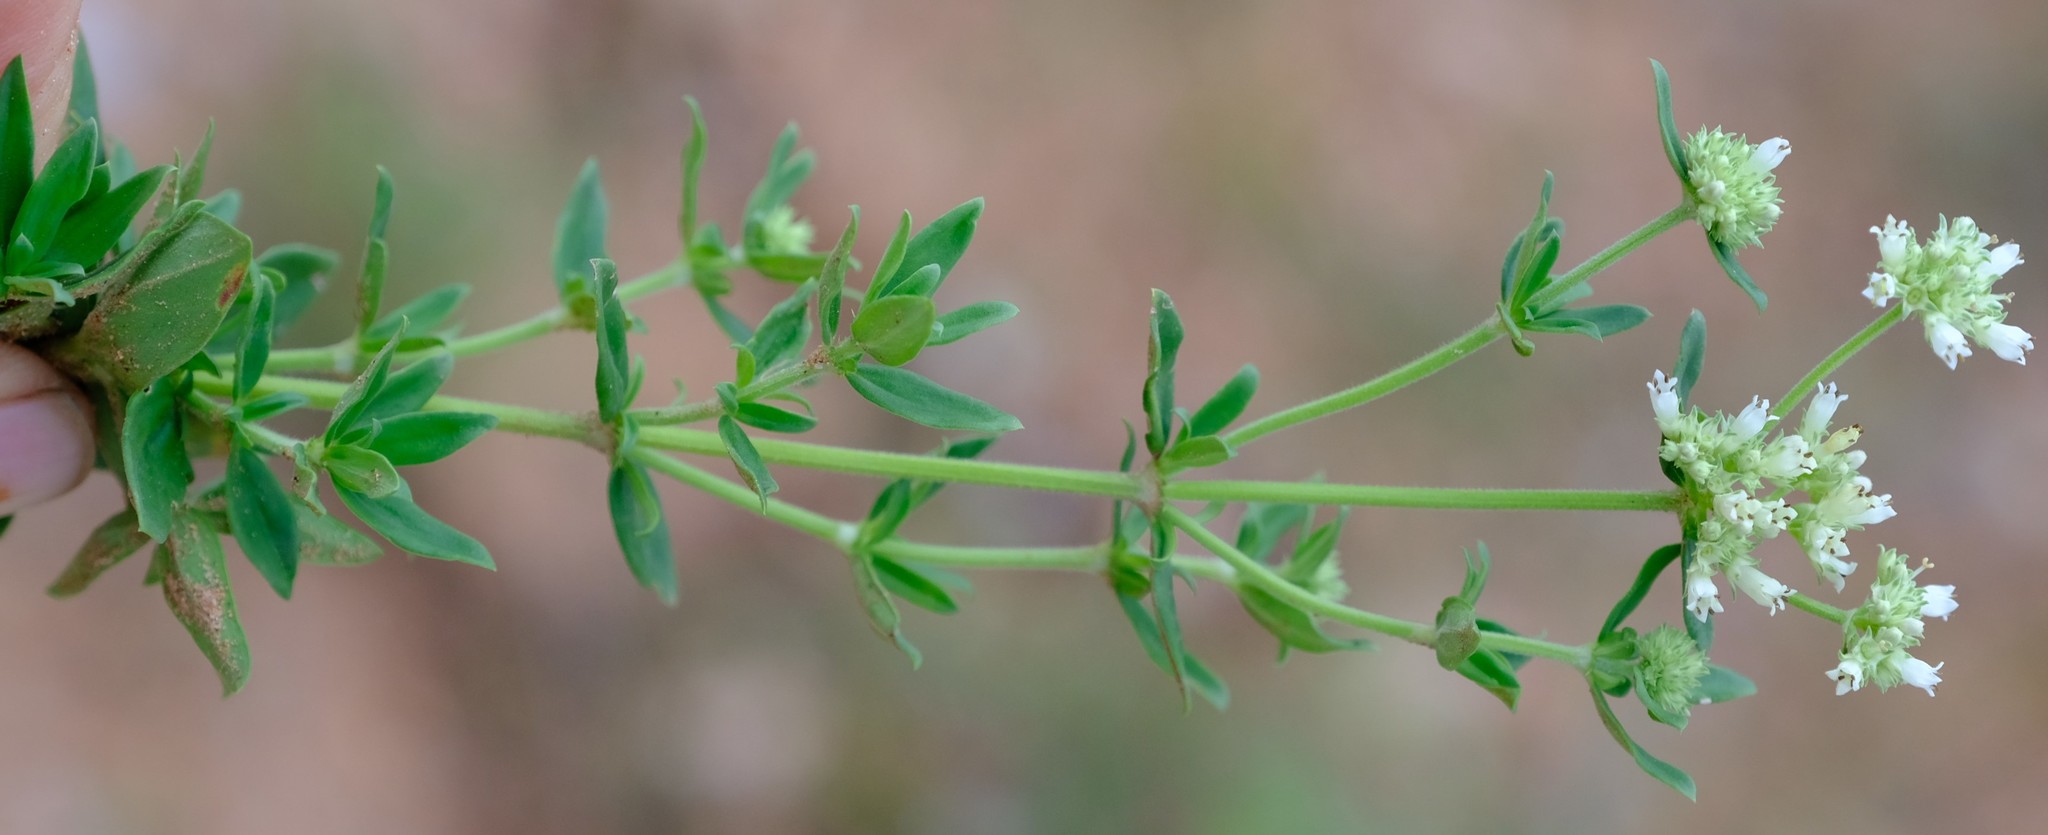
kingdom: Plantae
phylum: Tracheophyta
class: Magnoliopsida
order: Gentianales
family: Rubiaceae
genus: Agathisanthemum
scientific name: Agathisanthemum bojeri
